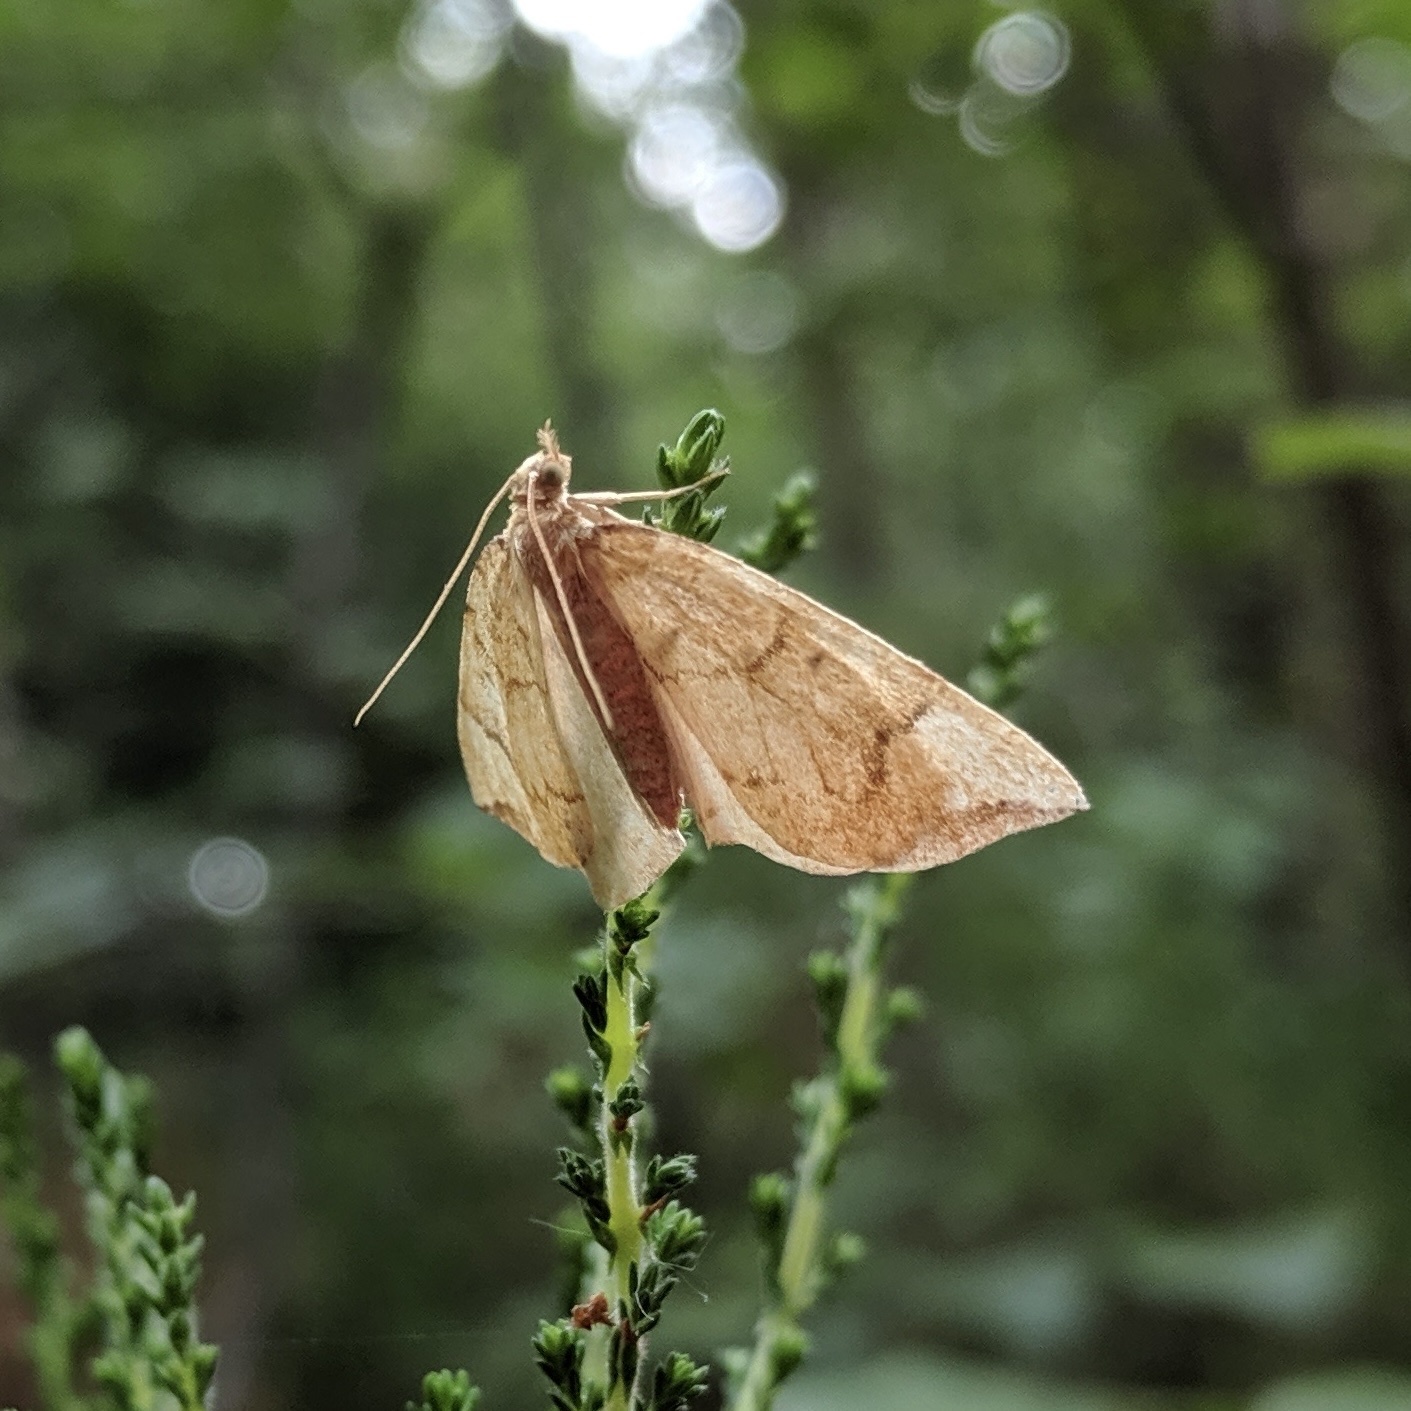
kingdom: Animalia
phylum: Arthropoda
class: Insecta
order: Lepidoptera
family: Geometridae
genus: Eulithis
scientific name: Eulithis populata
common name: Northern spinach
